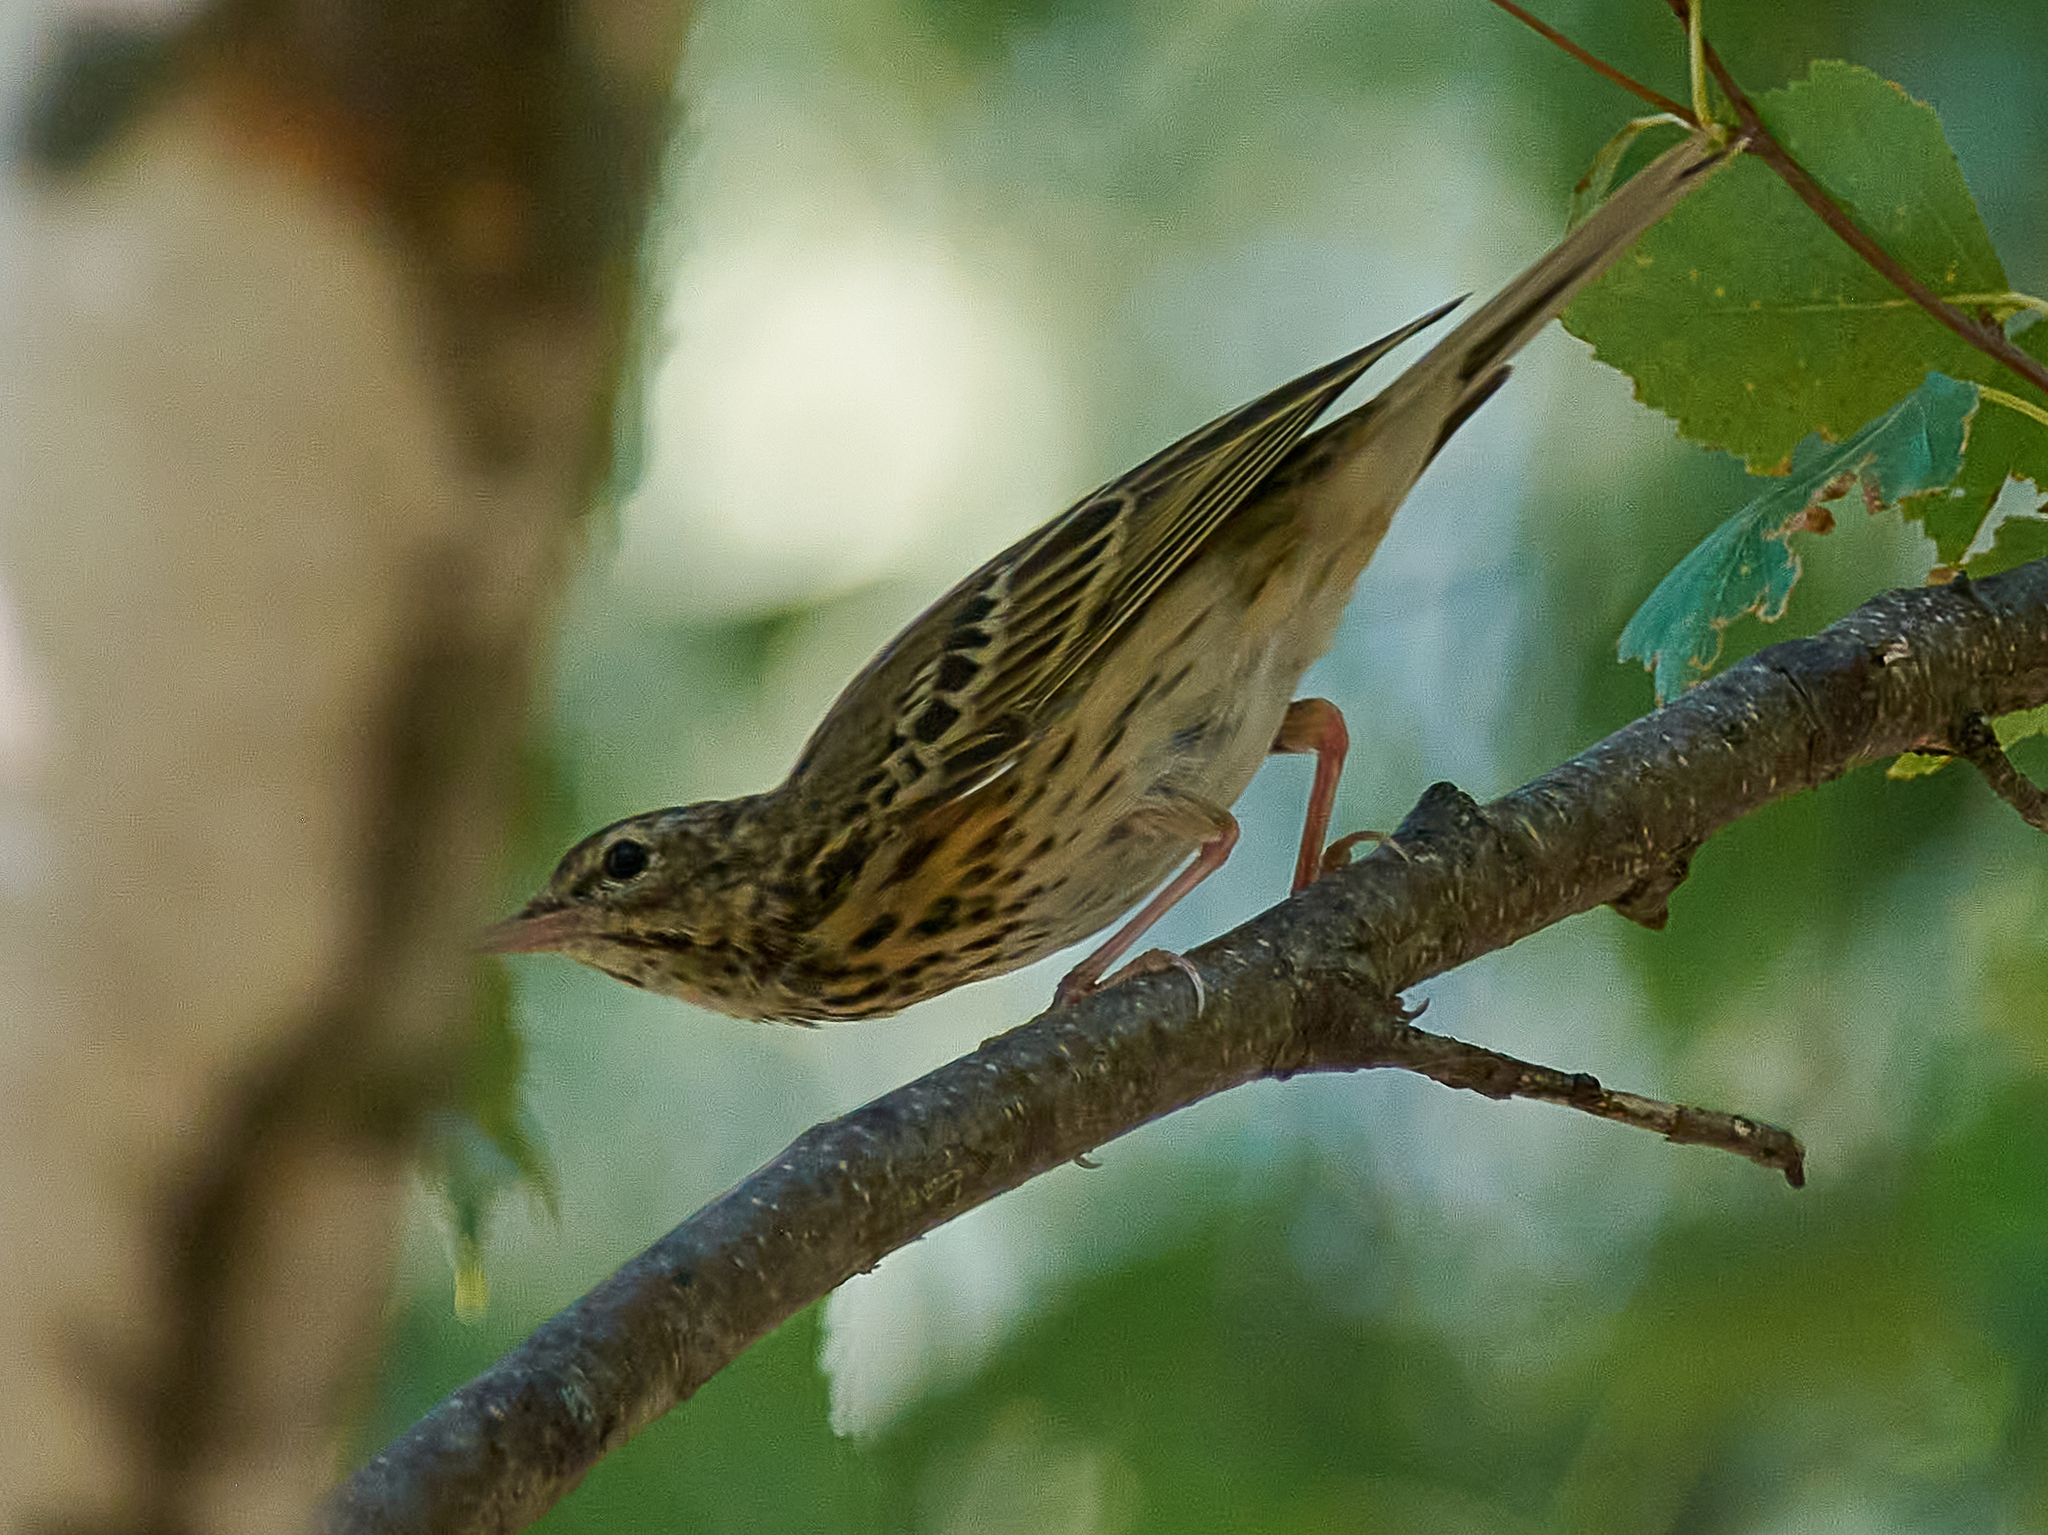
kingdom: Animalia
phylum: Chordata
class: Aves
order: Passeriformes
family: Motacillidae
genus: Anthus
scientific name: Anthus trivialis
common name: Tree pipit
